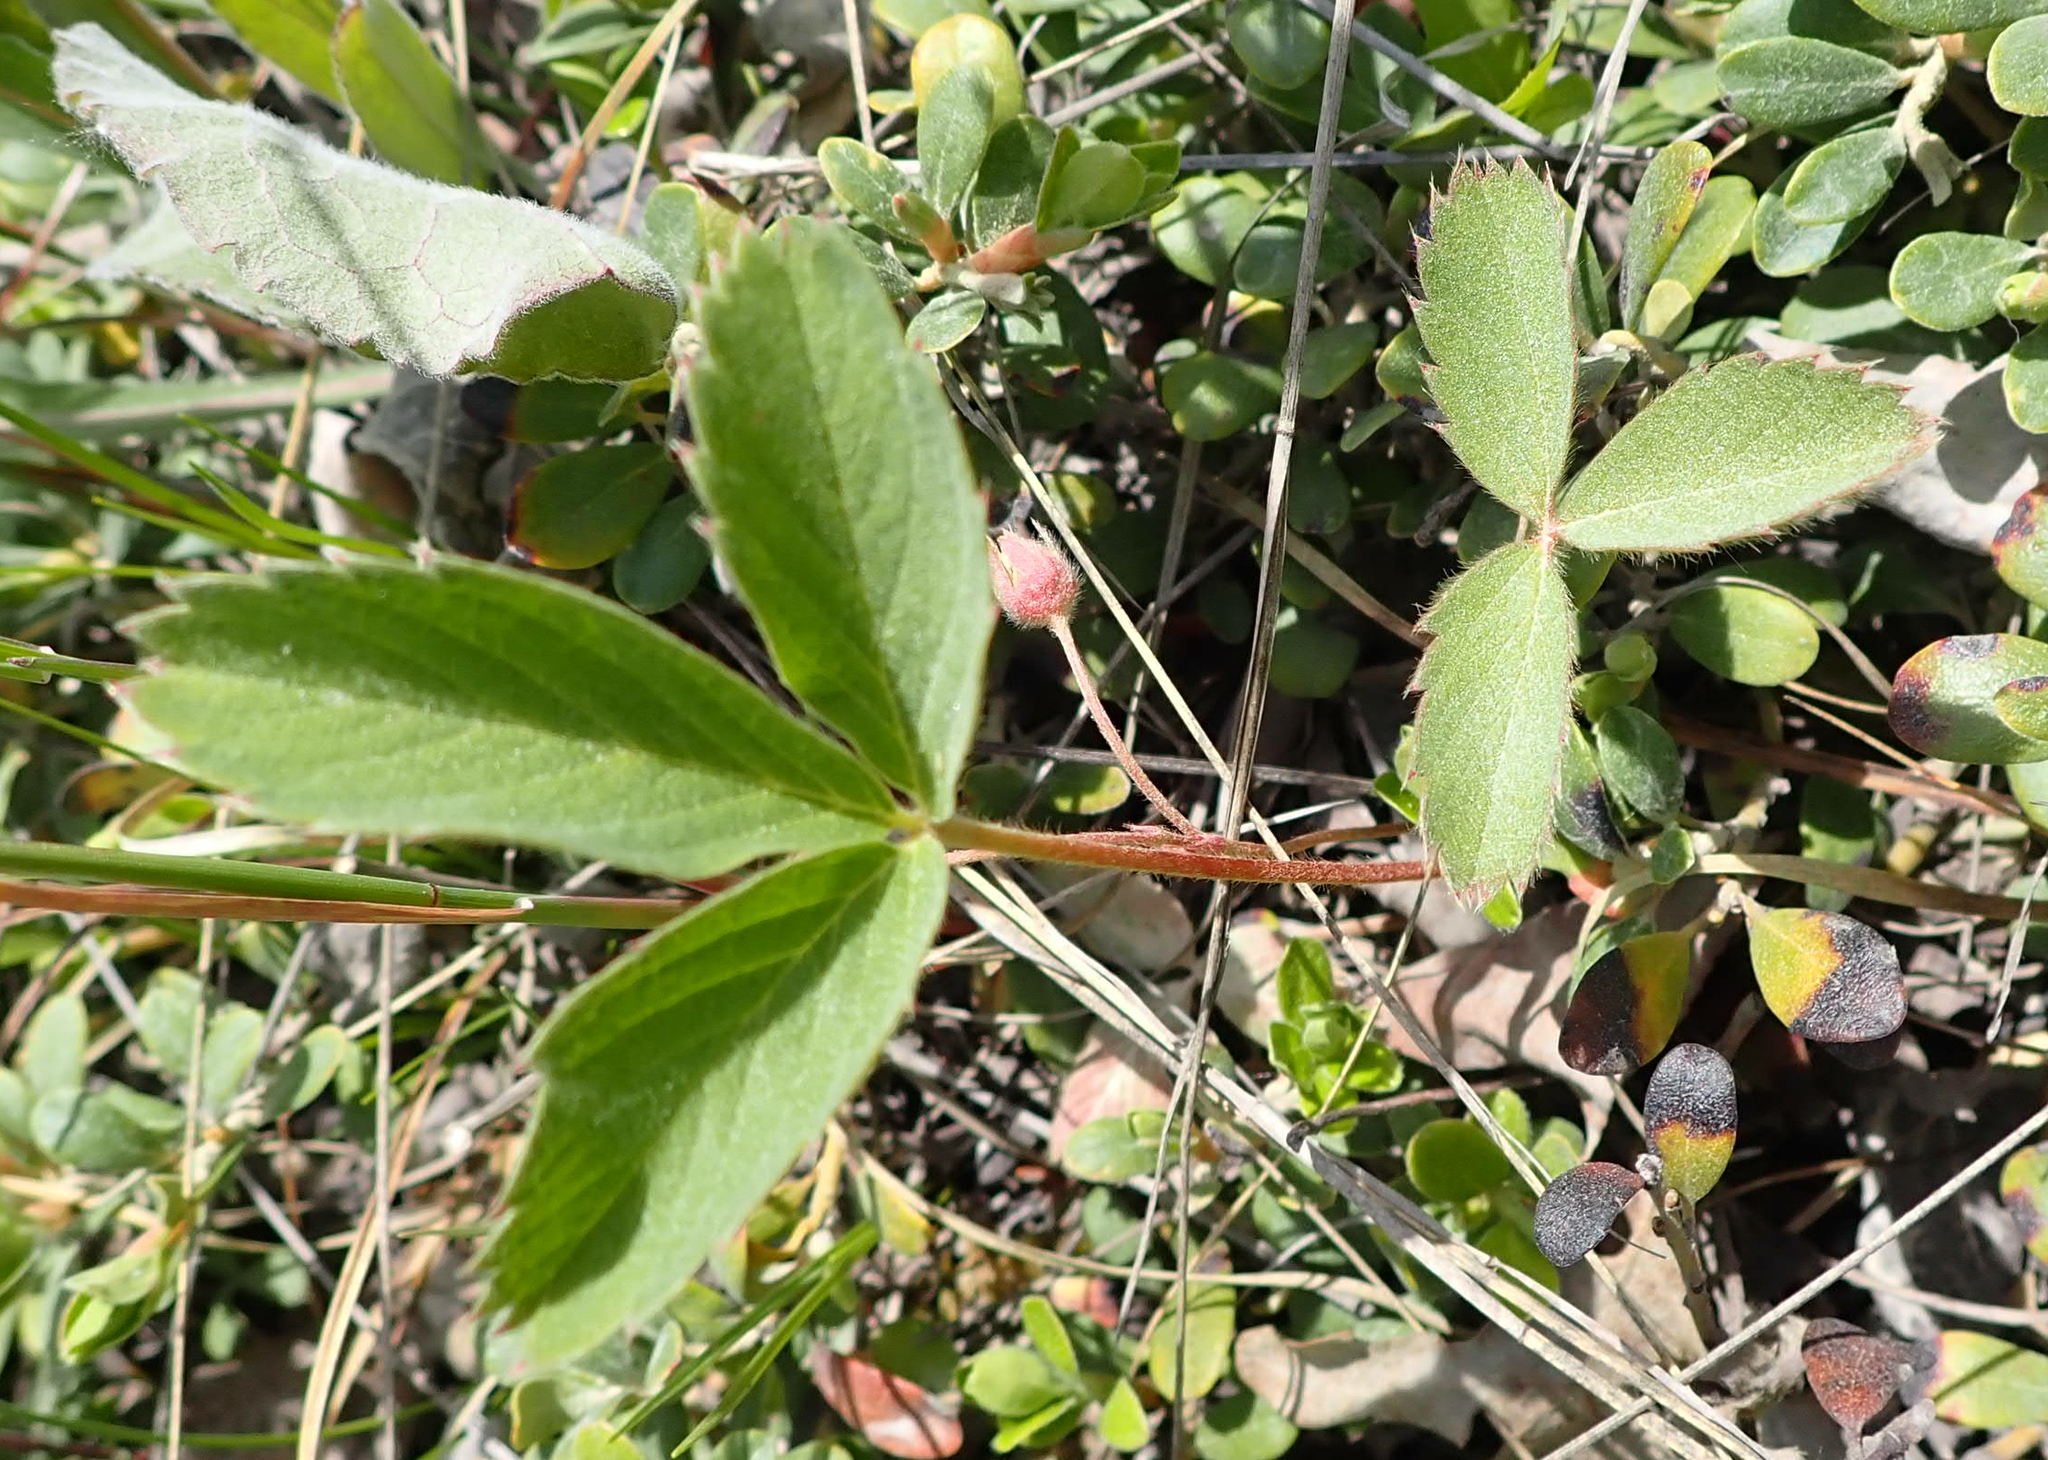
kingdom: Plantae
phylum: Tracheophyta
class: Magnoliopsida
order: Rosales
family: Rosaceae
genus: Fragaria
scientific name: Fragaria virginiana
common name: Thickleaved wild strawberry
